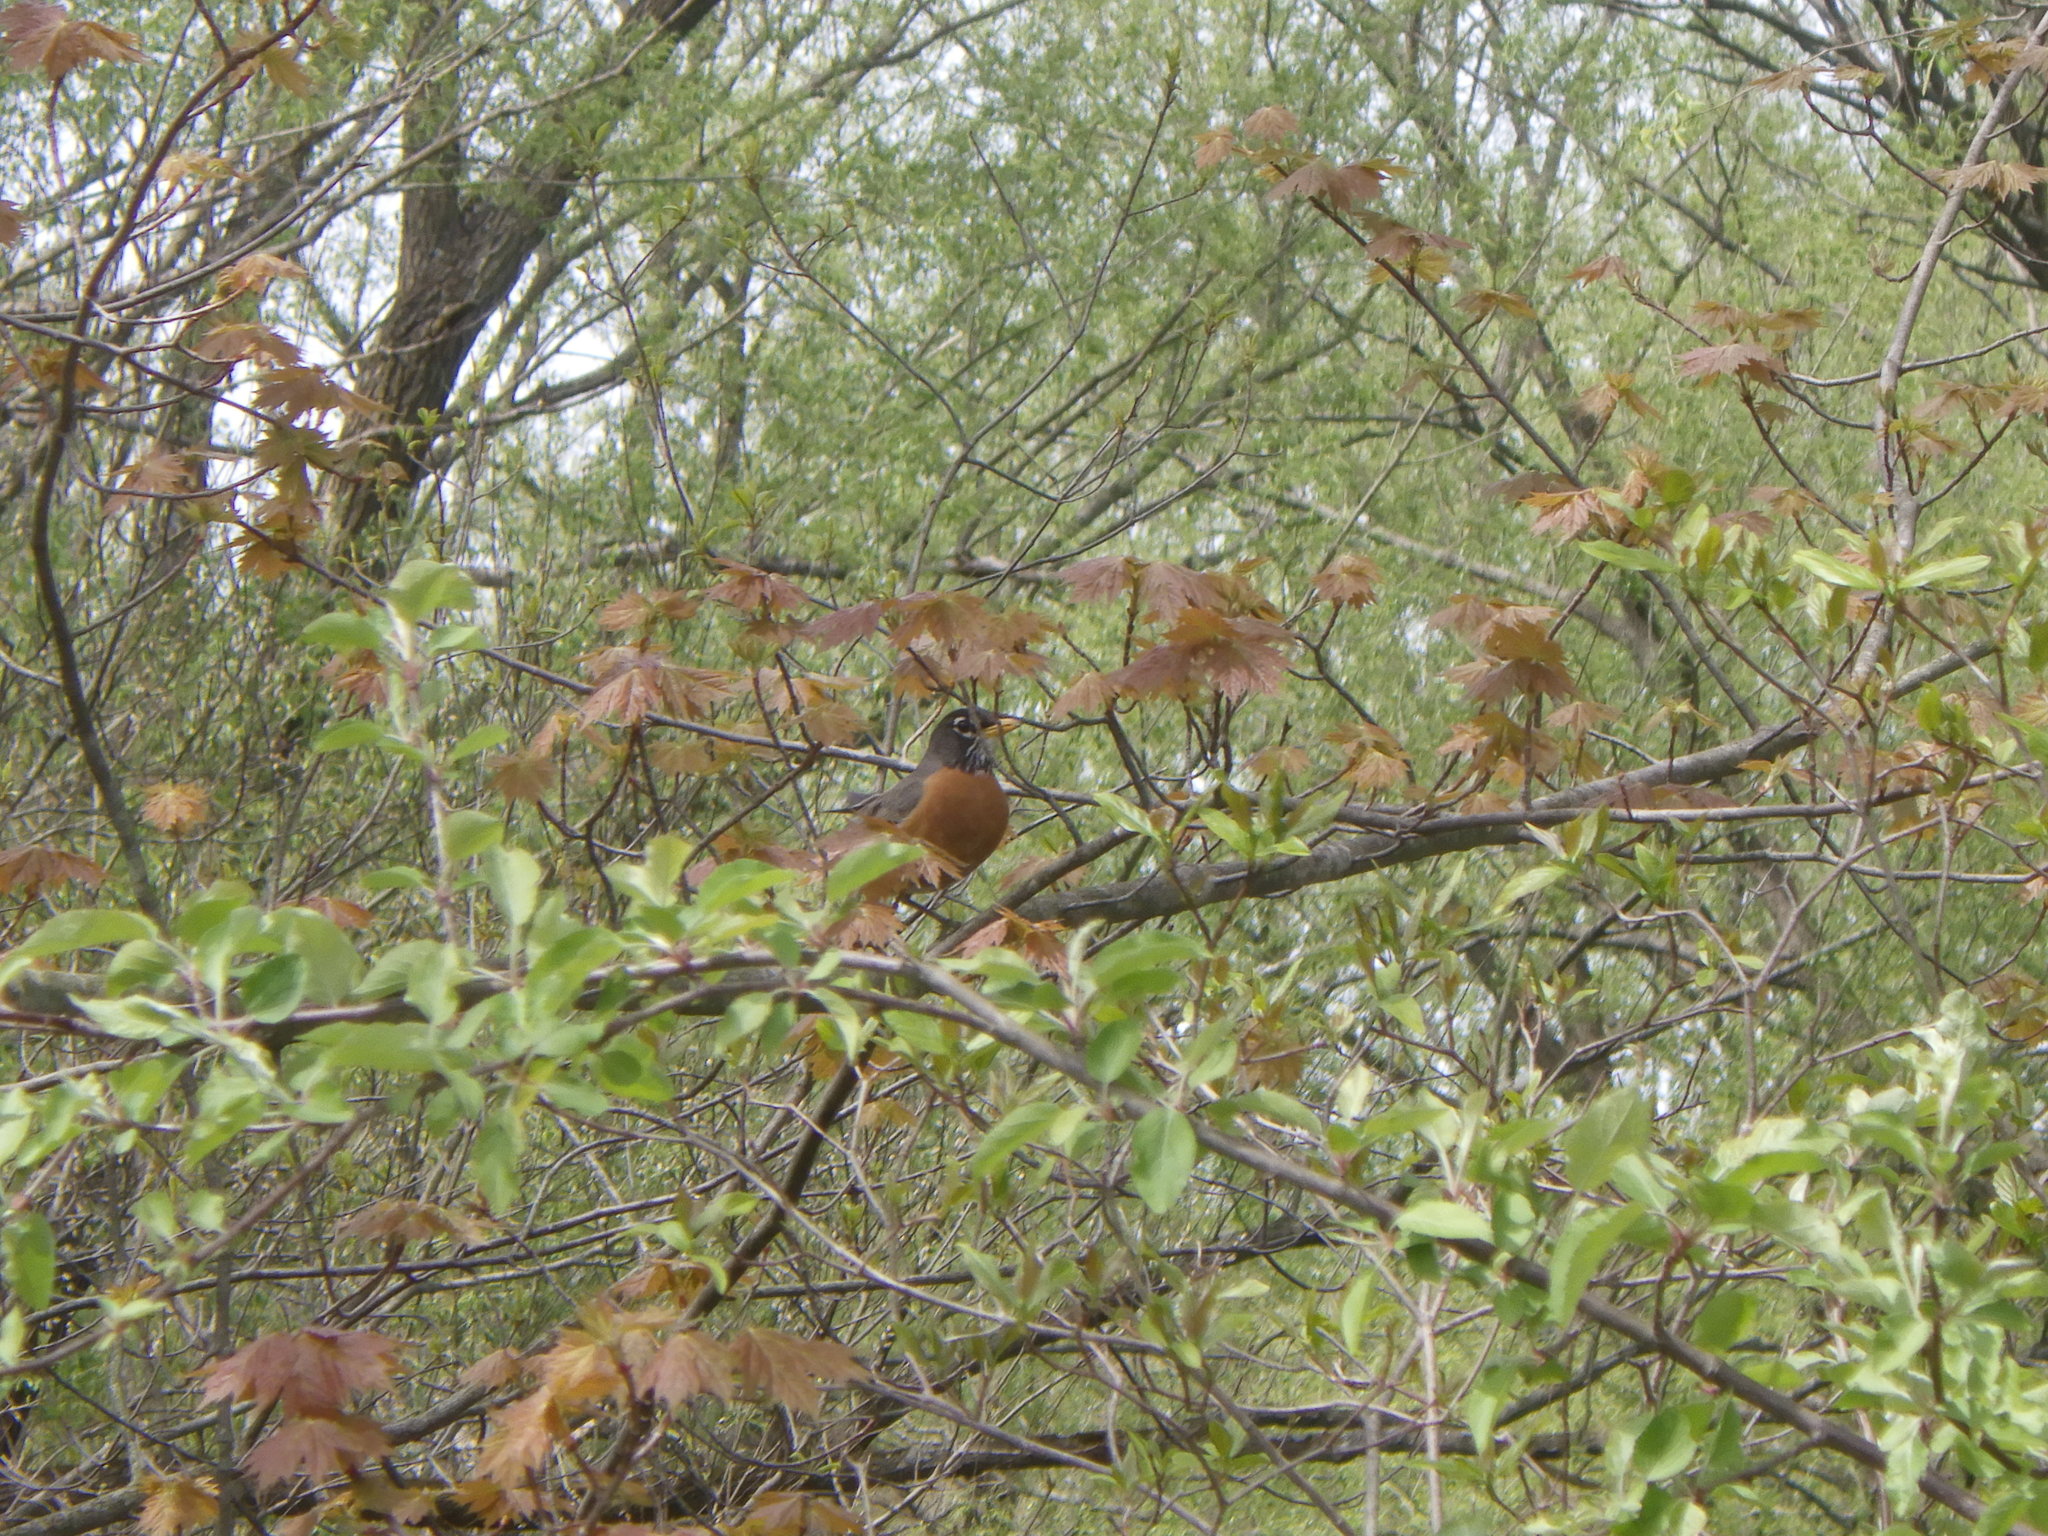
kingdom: Animalia
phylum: Chordata
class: Aves
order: Passeriformes
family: Turdidae
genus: Turdus
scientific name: Turdus migratorius
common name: American robin
